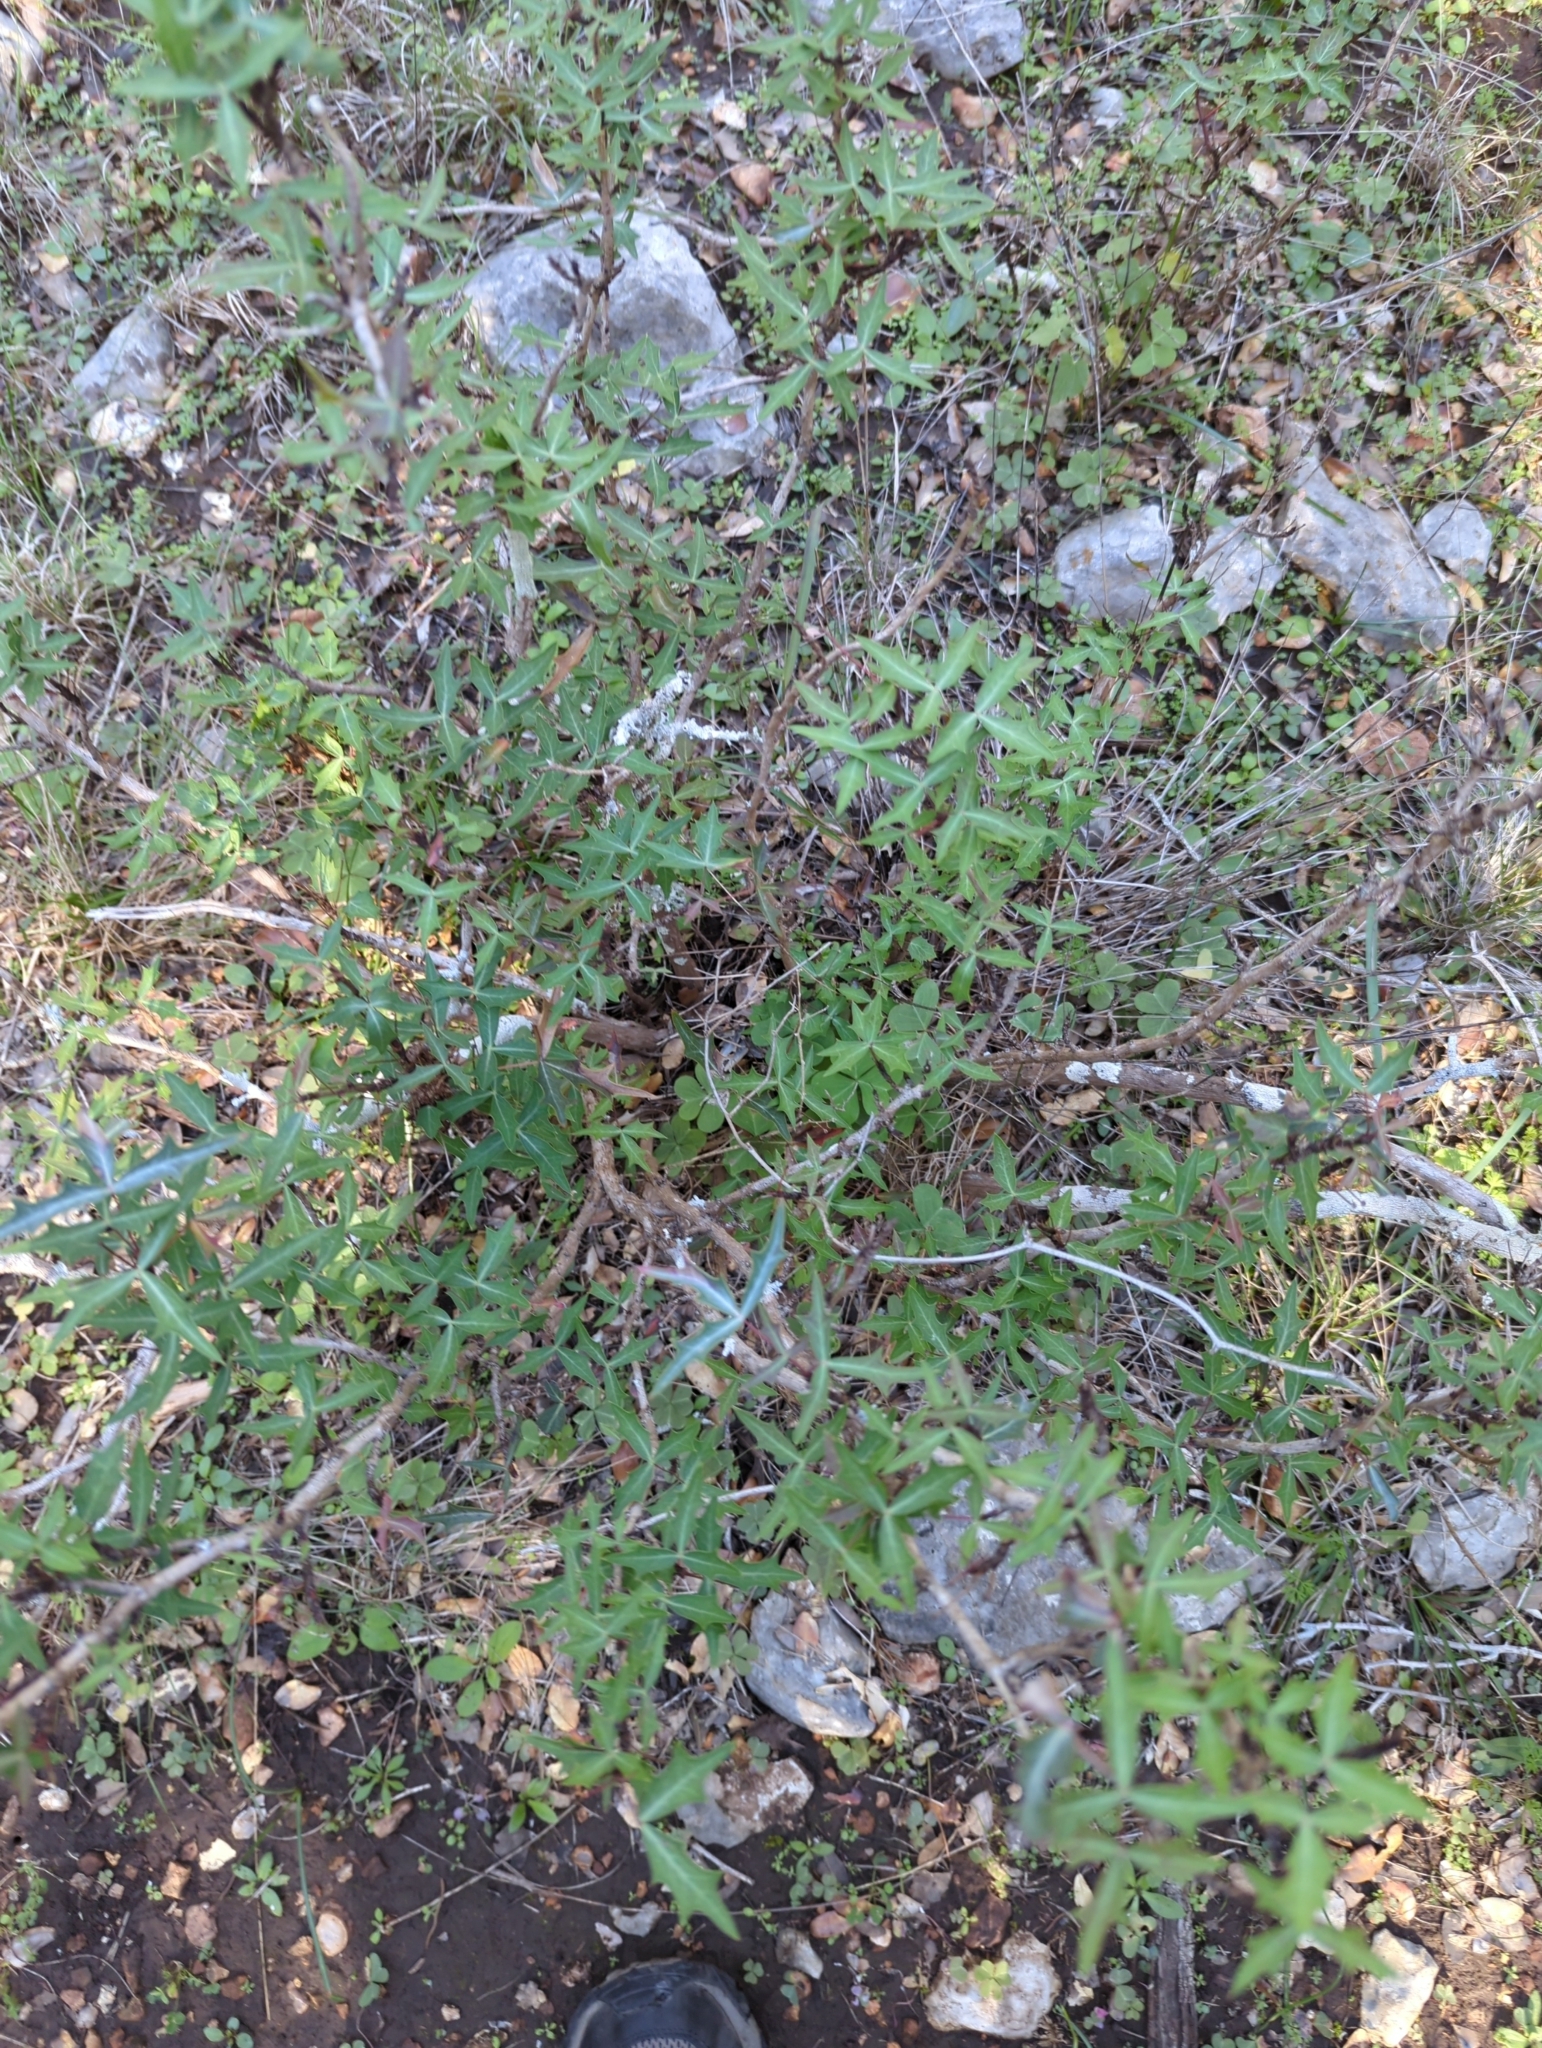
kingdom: Plantae
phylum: Tracheophyta
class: Magnoliopsida
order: Ranunculales
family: Berberidaceae
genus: Alloberberis
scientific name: Alloberberis trifoliolata
